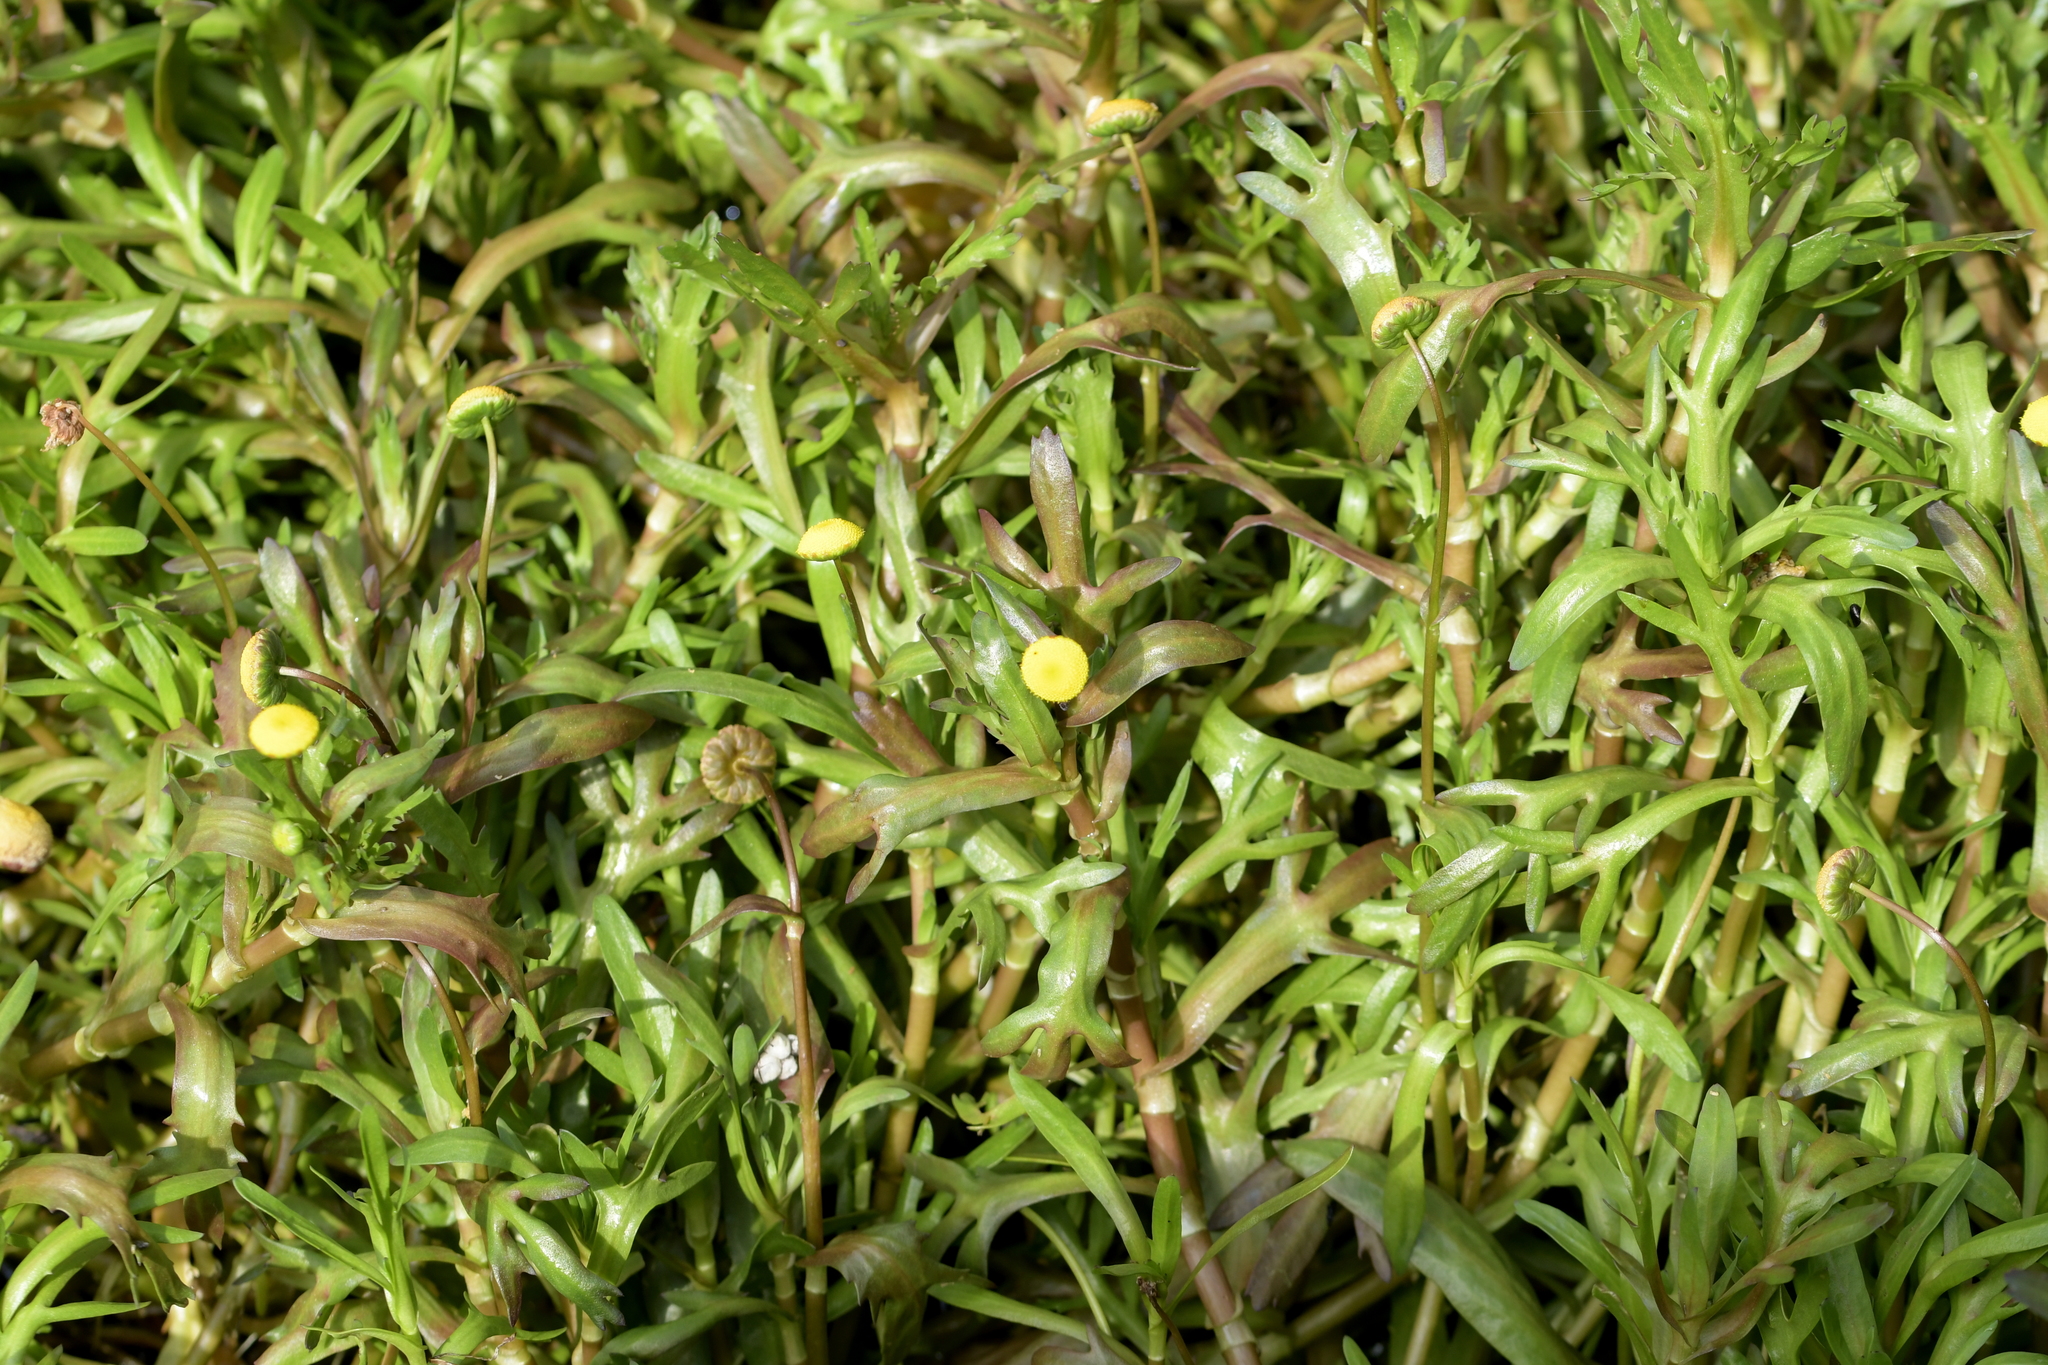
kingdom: Plantae
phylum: Tracheophyta
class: Magnoliopsida
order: Asterales
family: Asteraceae
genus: Cotula
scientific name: Cotula coronopifolia
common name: Buttonweed
